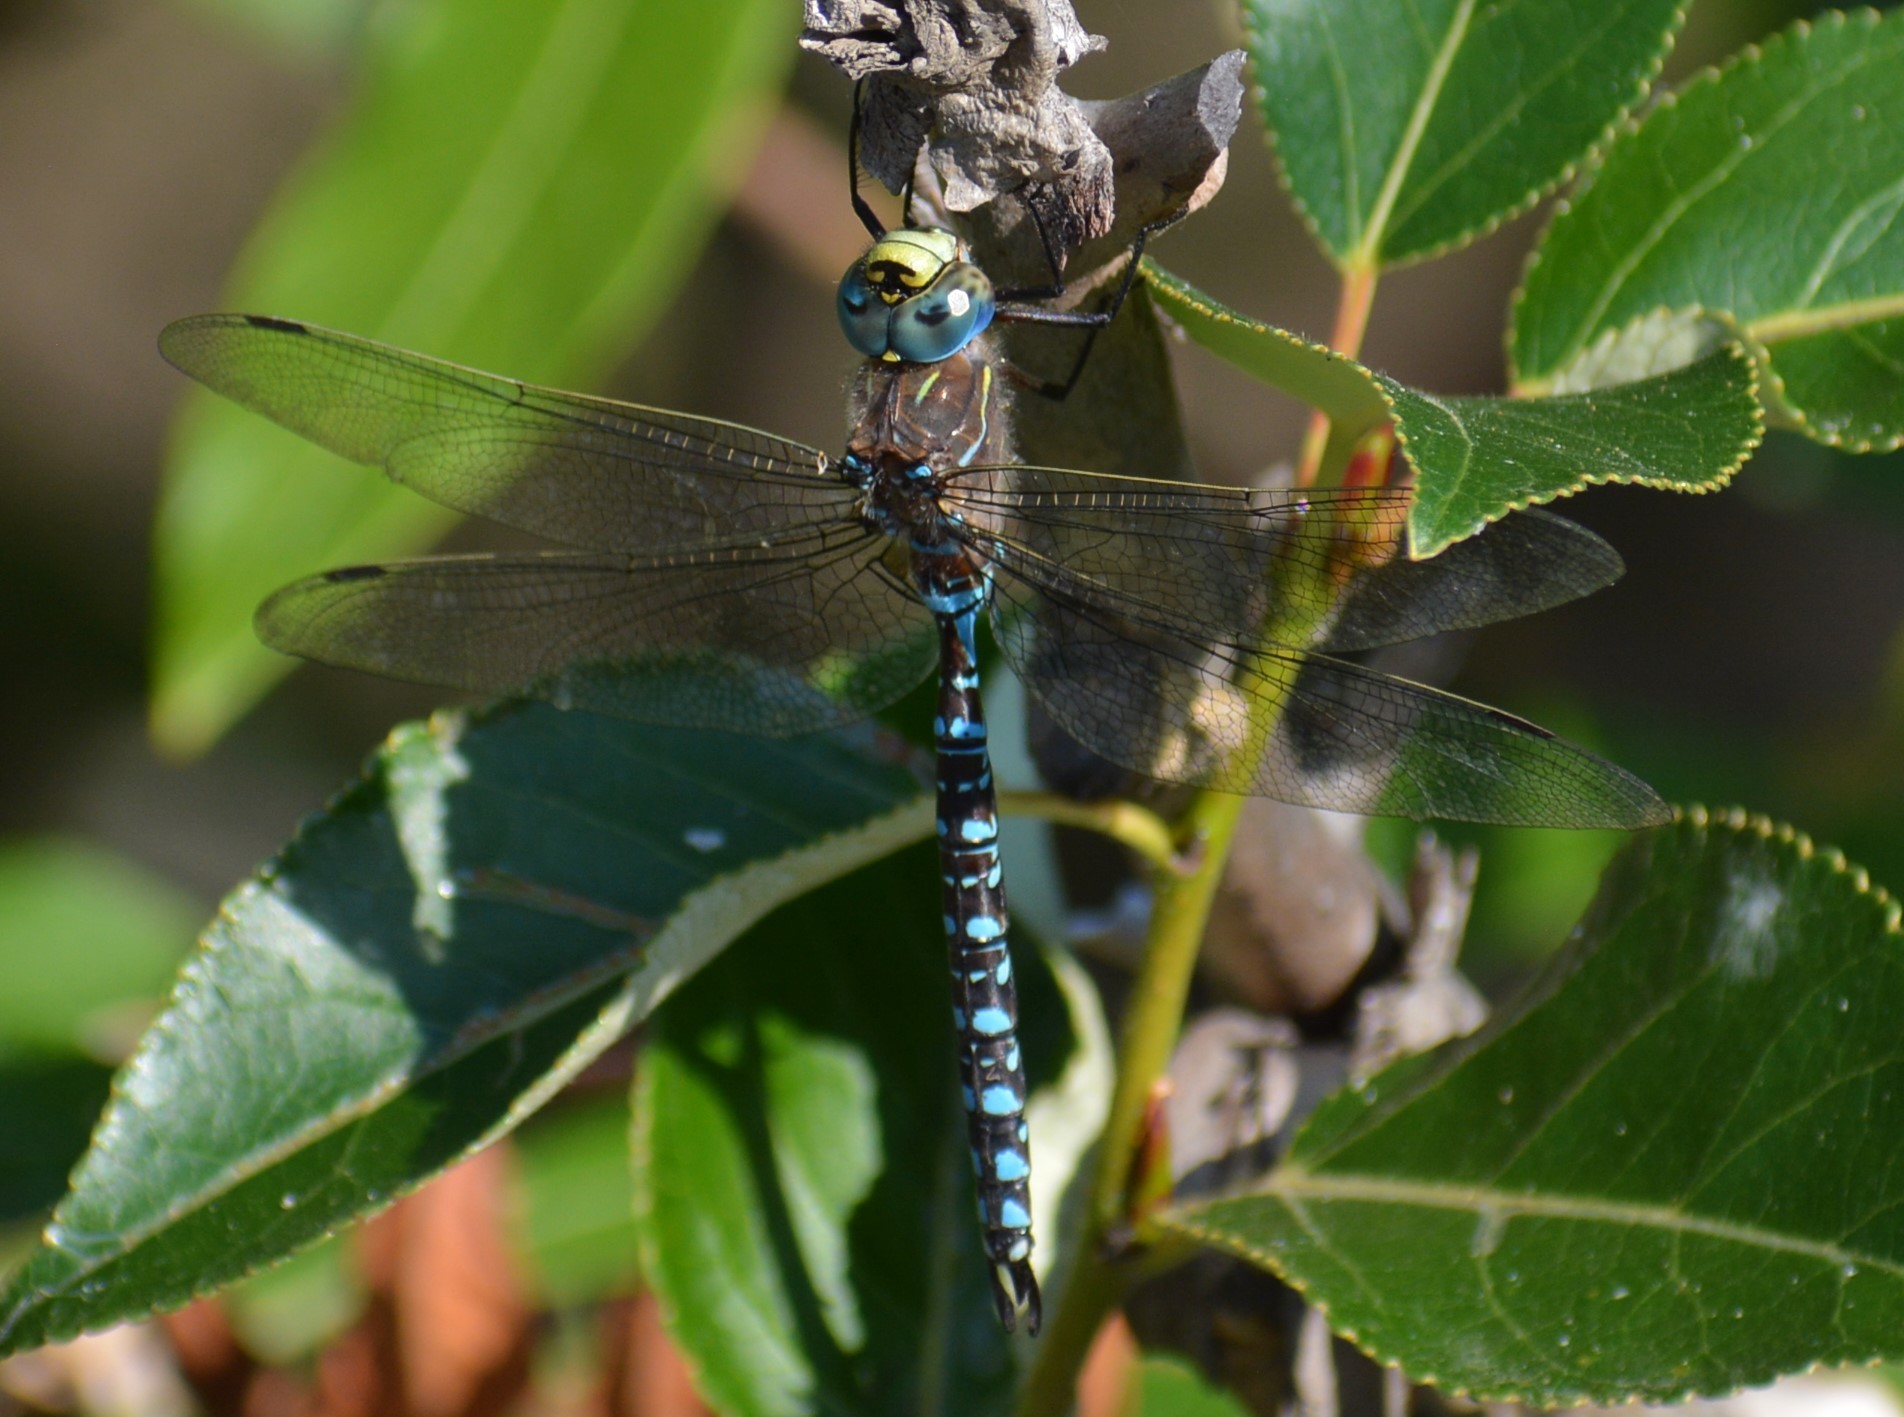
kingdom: Animalia
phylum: Arthropoda
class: Insecta
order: Odonata
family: Aeshnidae
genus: Aeshna
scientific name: Aeshna interrupta
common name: Variable darner
